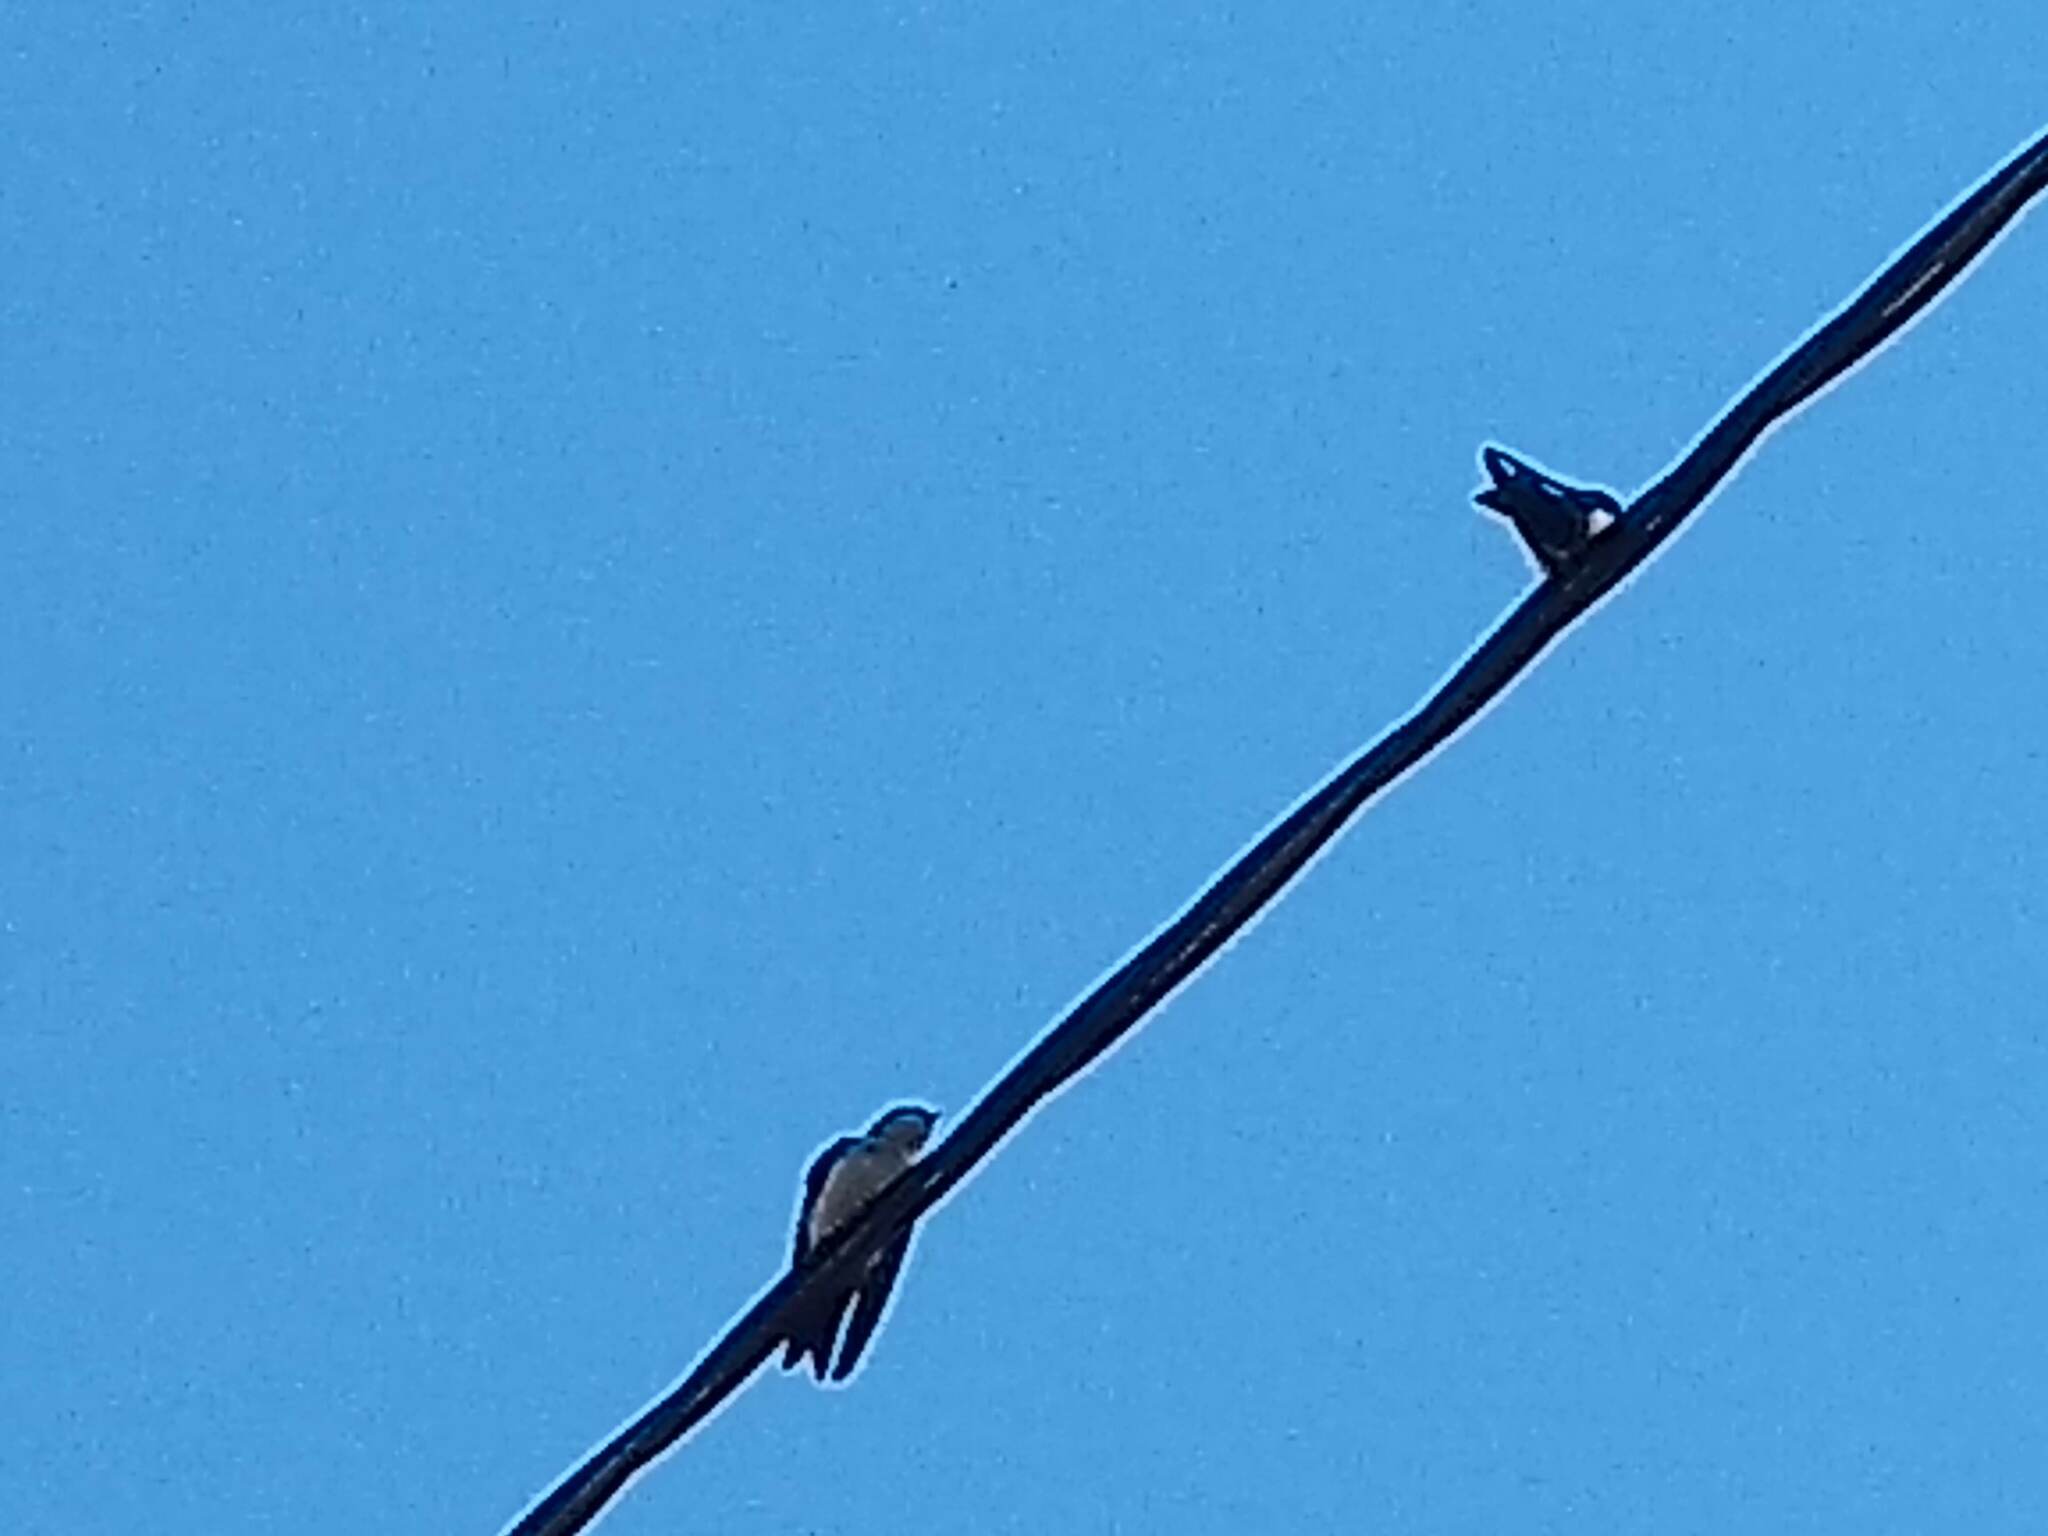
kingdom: Animalia
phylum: Chordata
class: Aves
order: Passeriformes
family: Hirundinidae
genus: Notiochelidon
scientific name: Notiochelidon cyanoleuca
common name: Blue-and-white swallow
